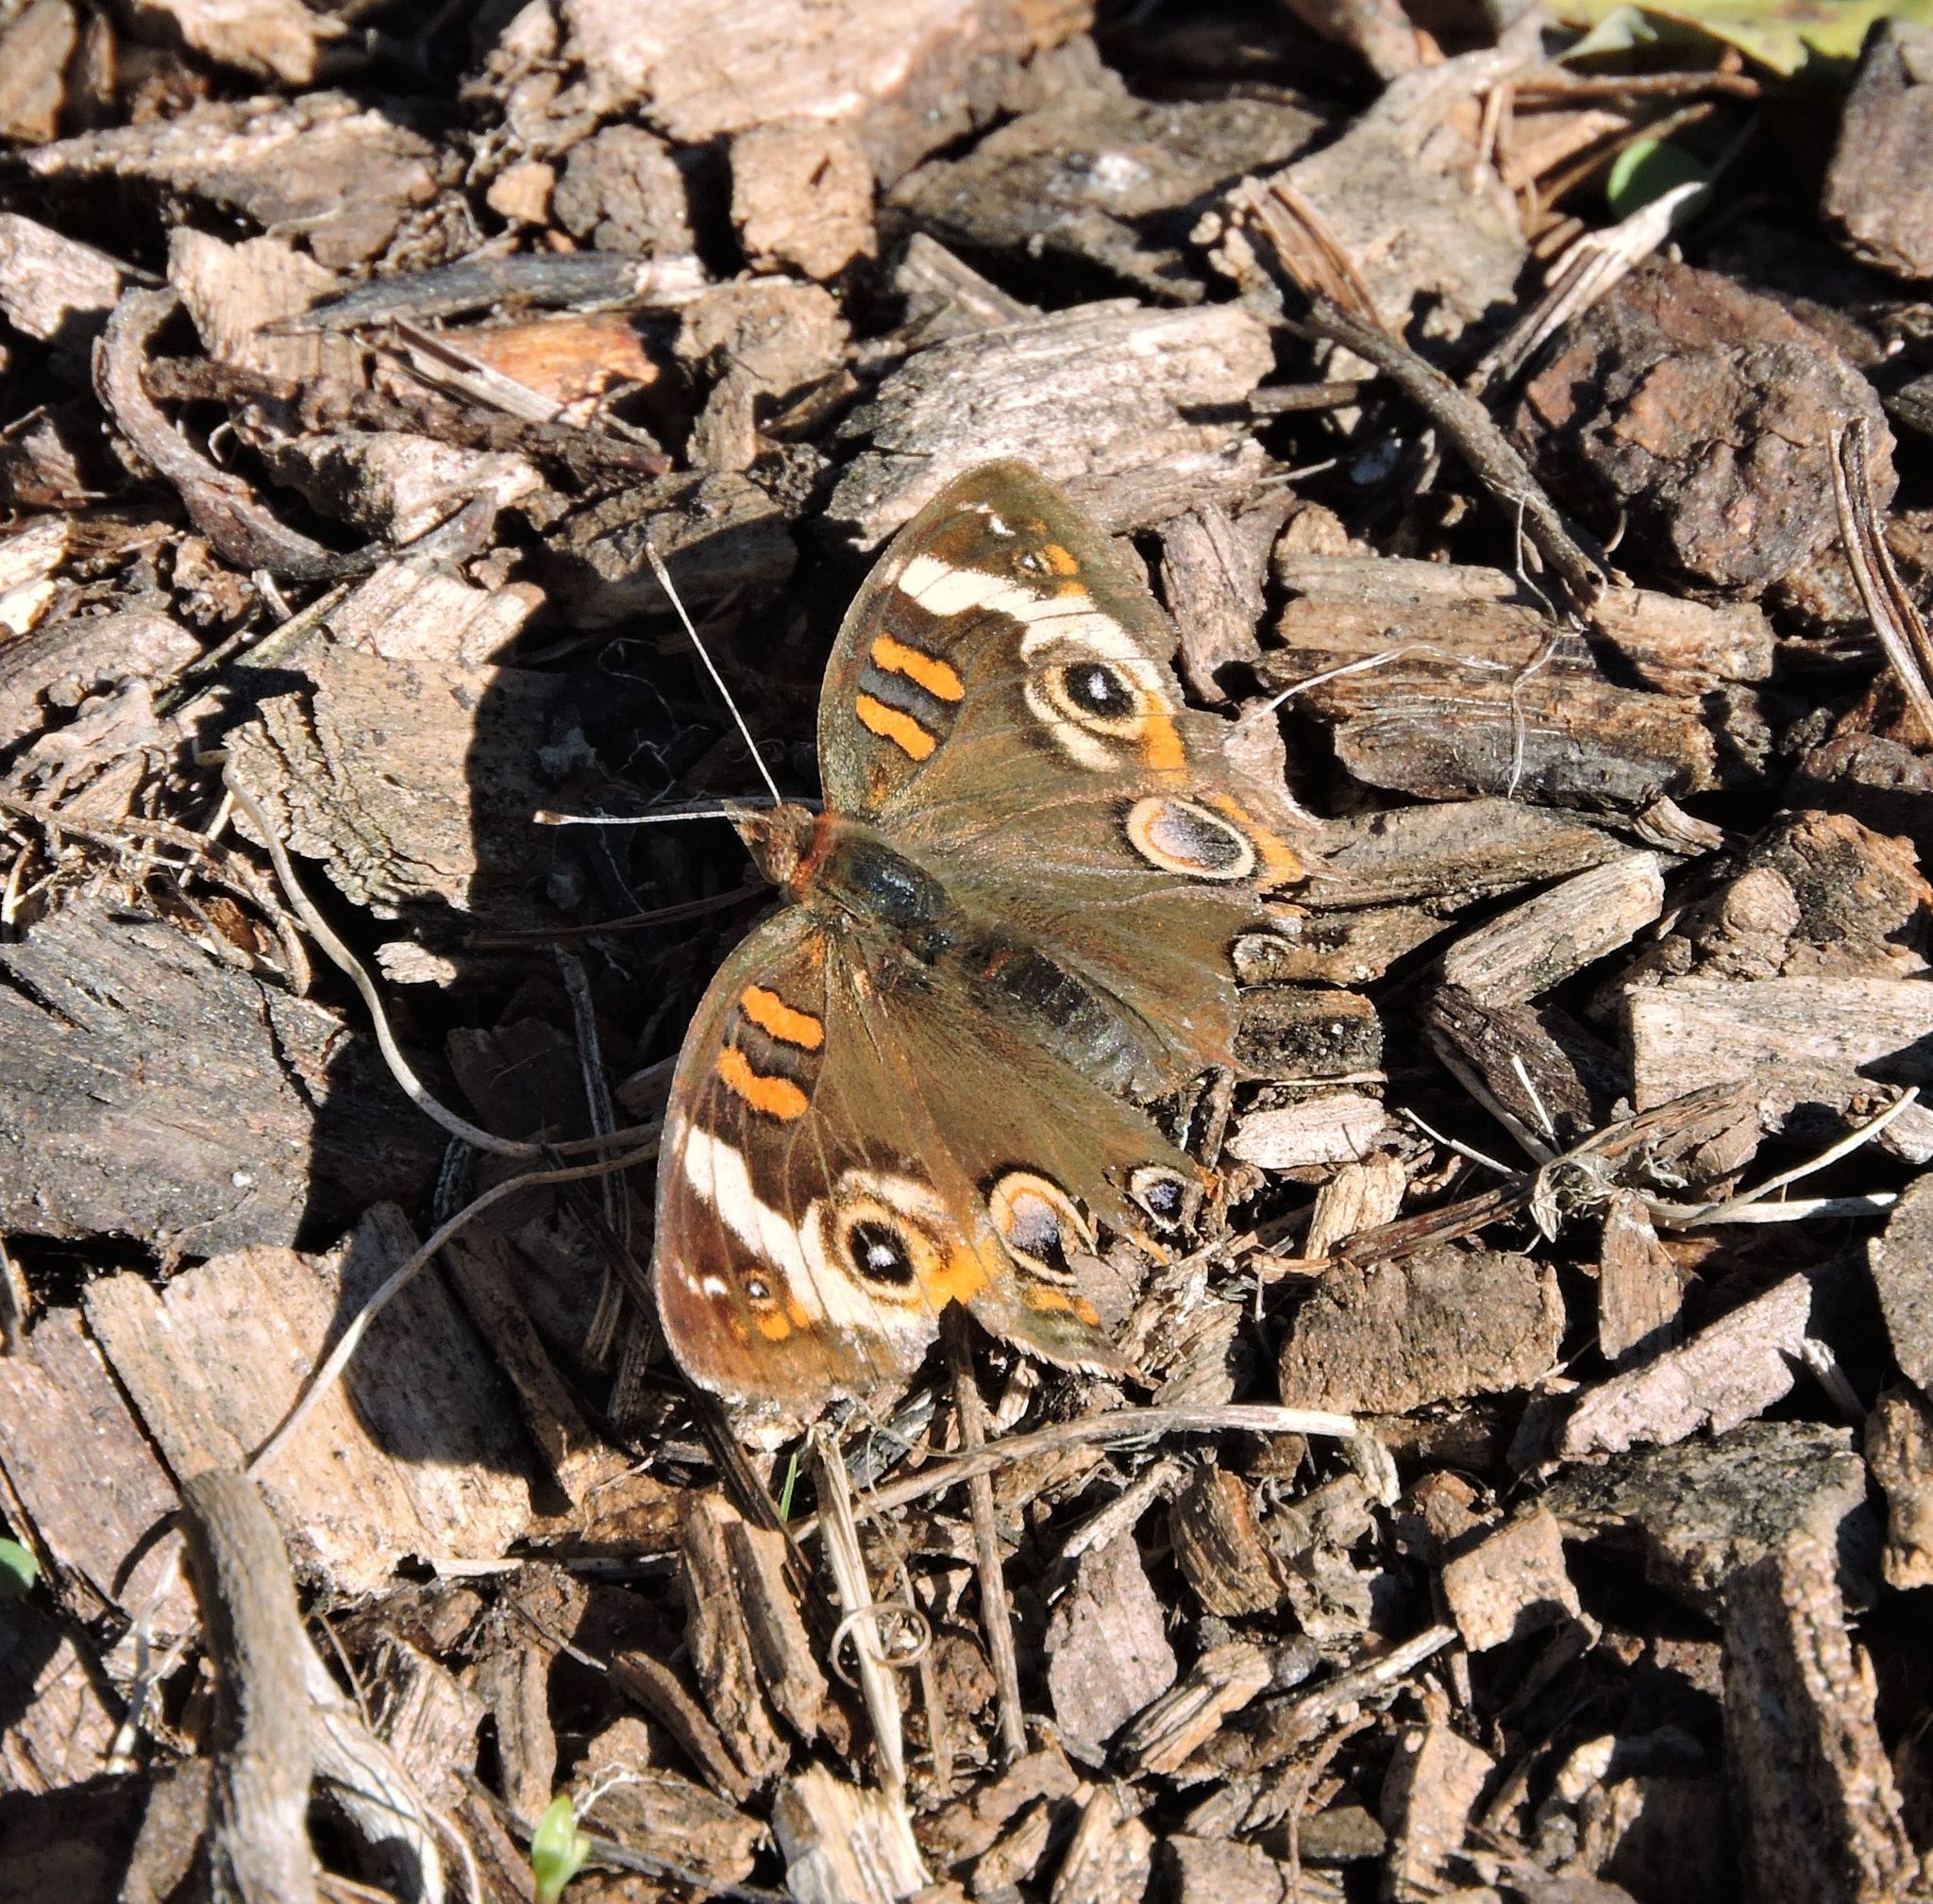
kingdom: Animalia
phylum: Arthropoda
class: Insecta
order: Lepidoptera
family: Nymphalidae
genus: Junonia
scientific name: Junonia coenia
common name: Common buckeye
